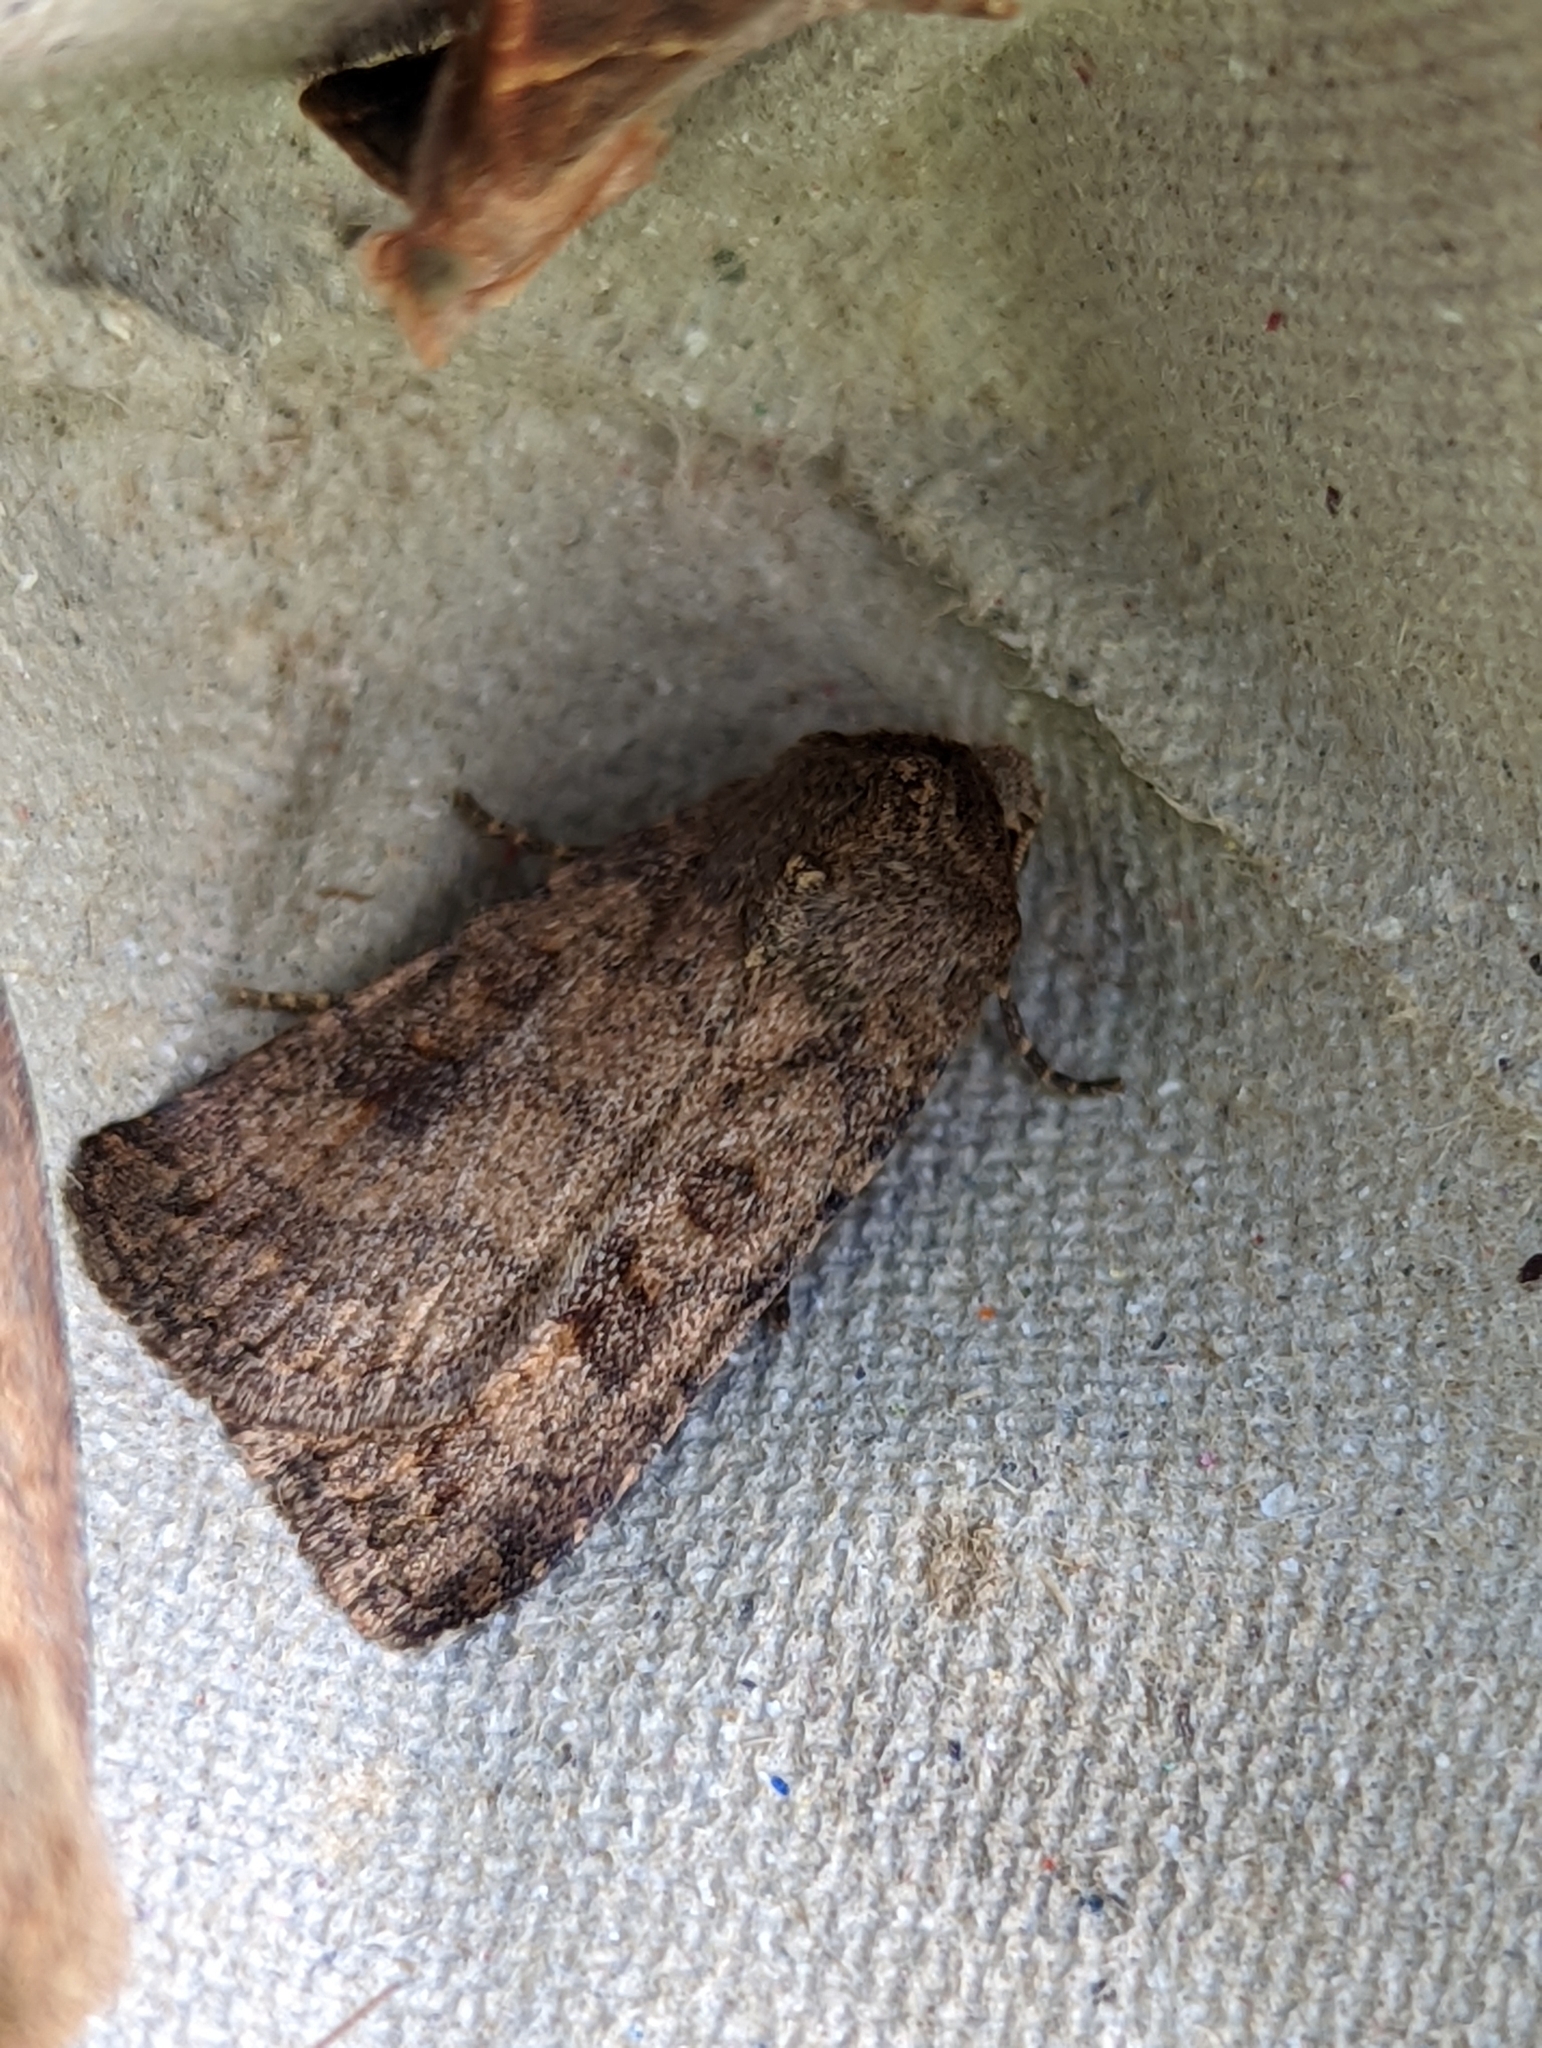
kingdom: Animalia
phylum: Arthropoda
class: Insecta
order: Lepidoptera
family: Noctuidae
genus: Caradrina
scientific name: Caradrina morpheus
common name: Mottled rustic
